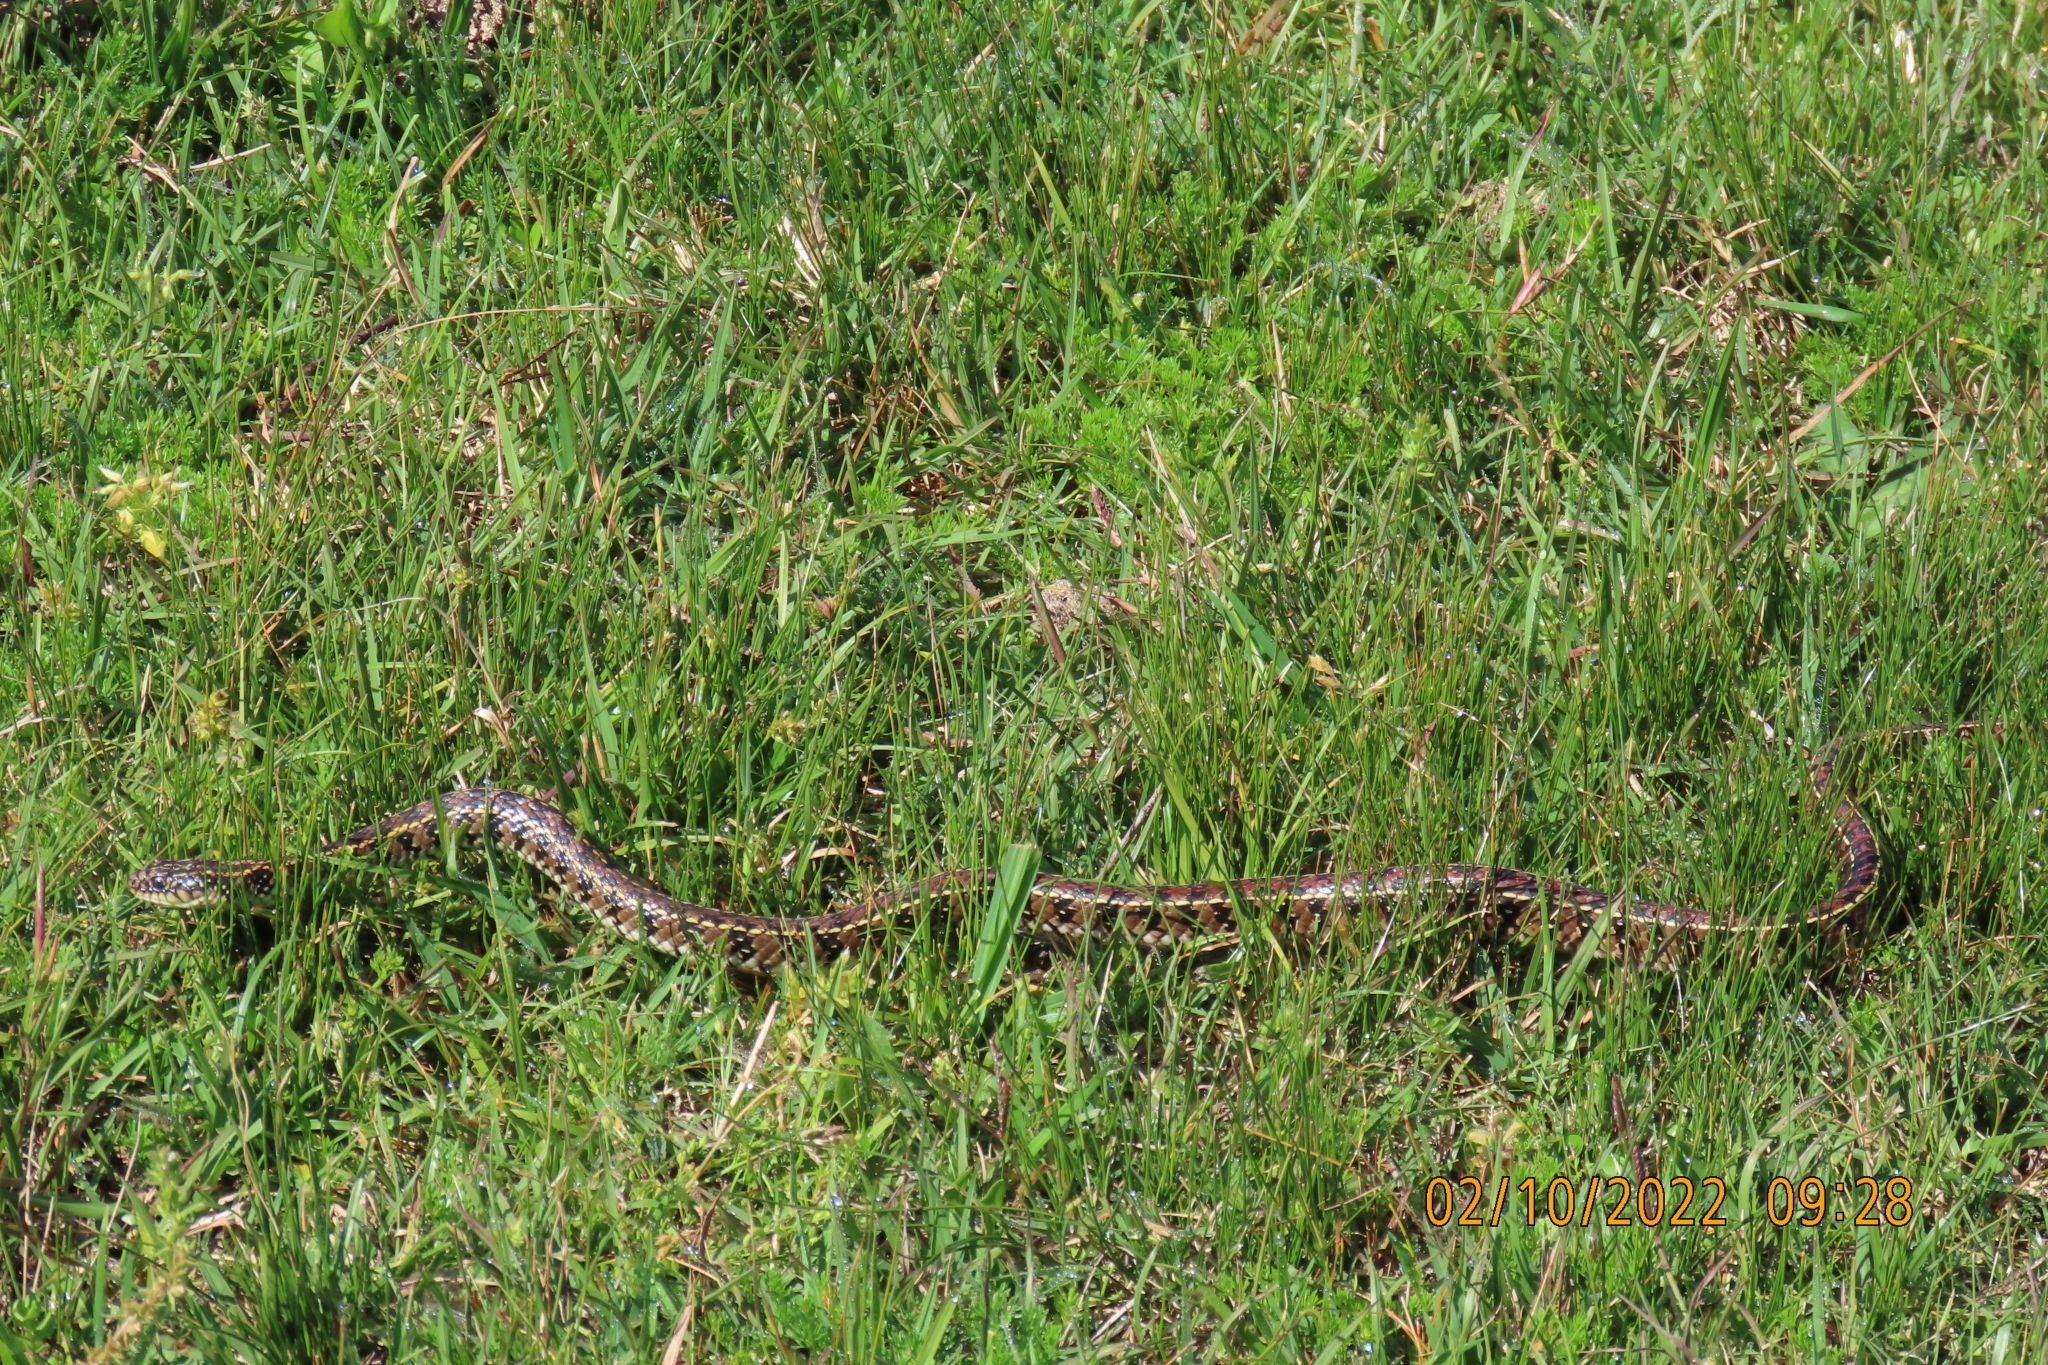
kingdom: Animalia
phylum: Chordata
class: Squamata
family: Colubridae
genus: Lygophis
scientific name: Lygophis anomalus
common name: English common name not available
